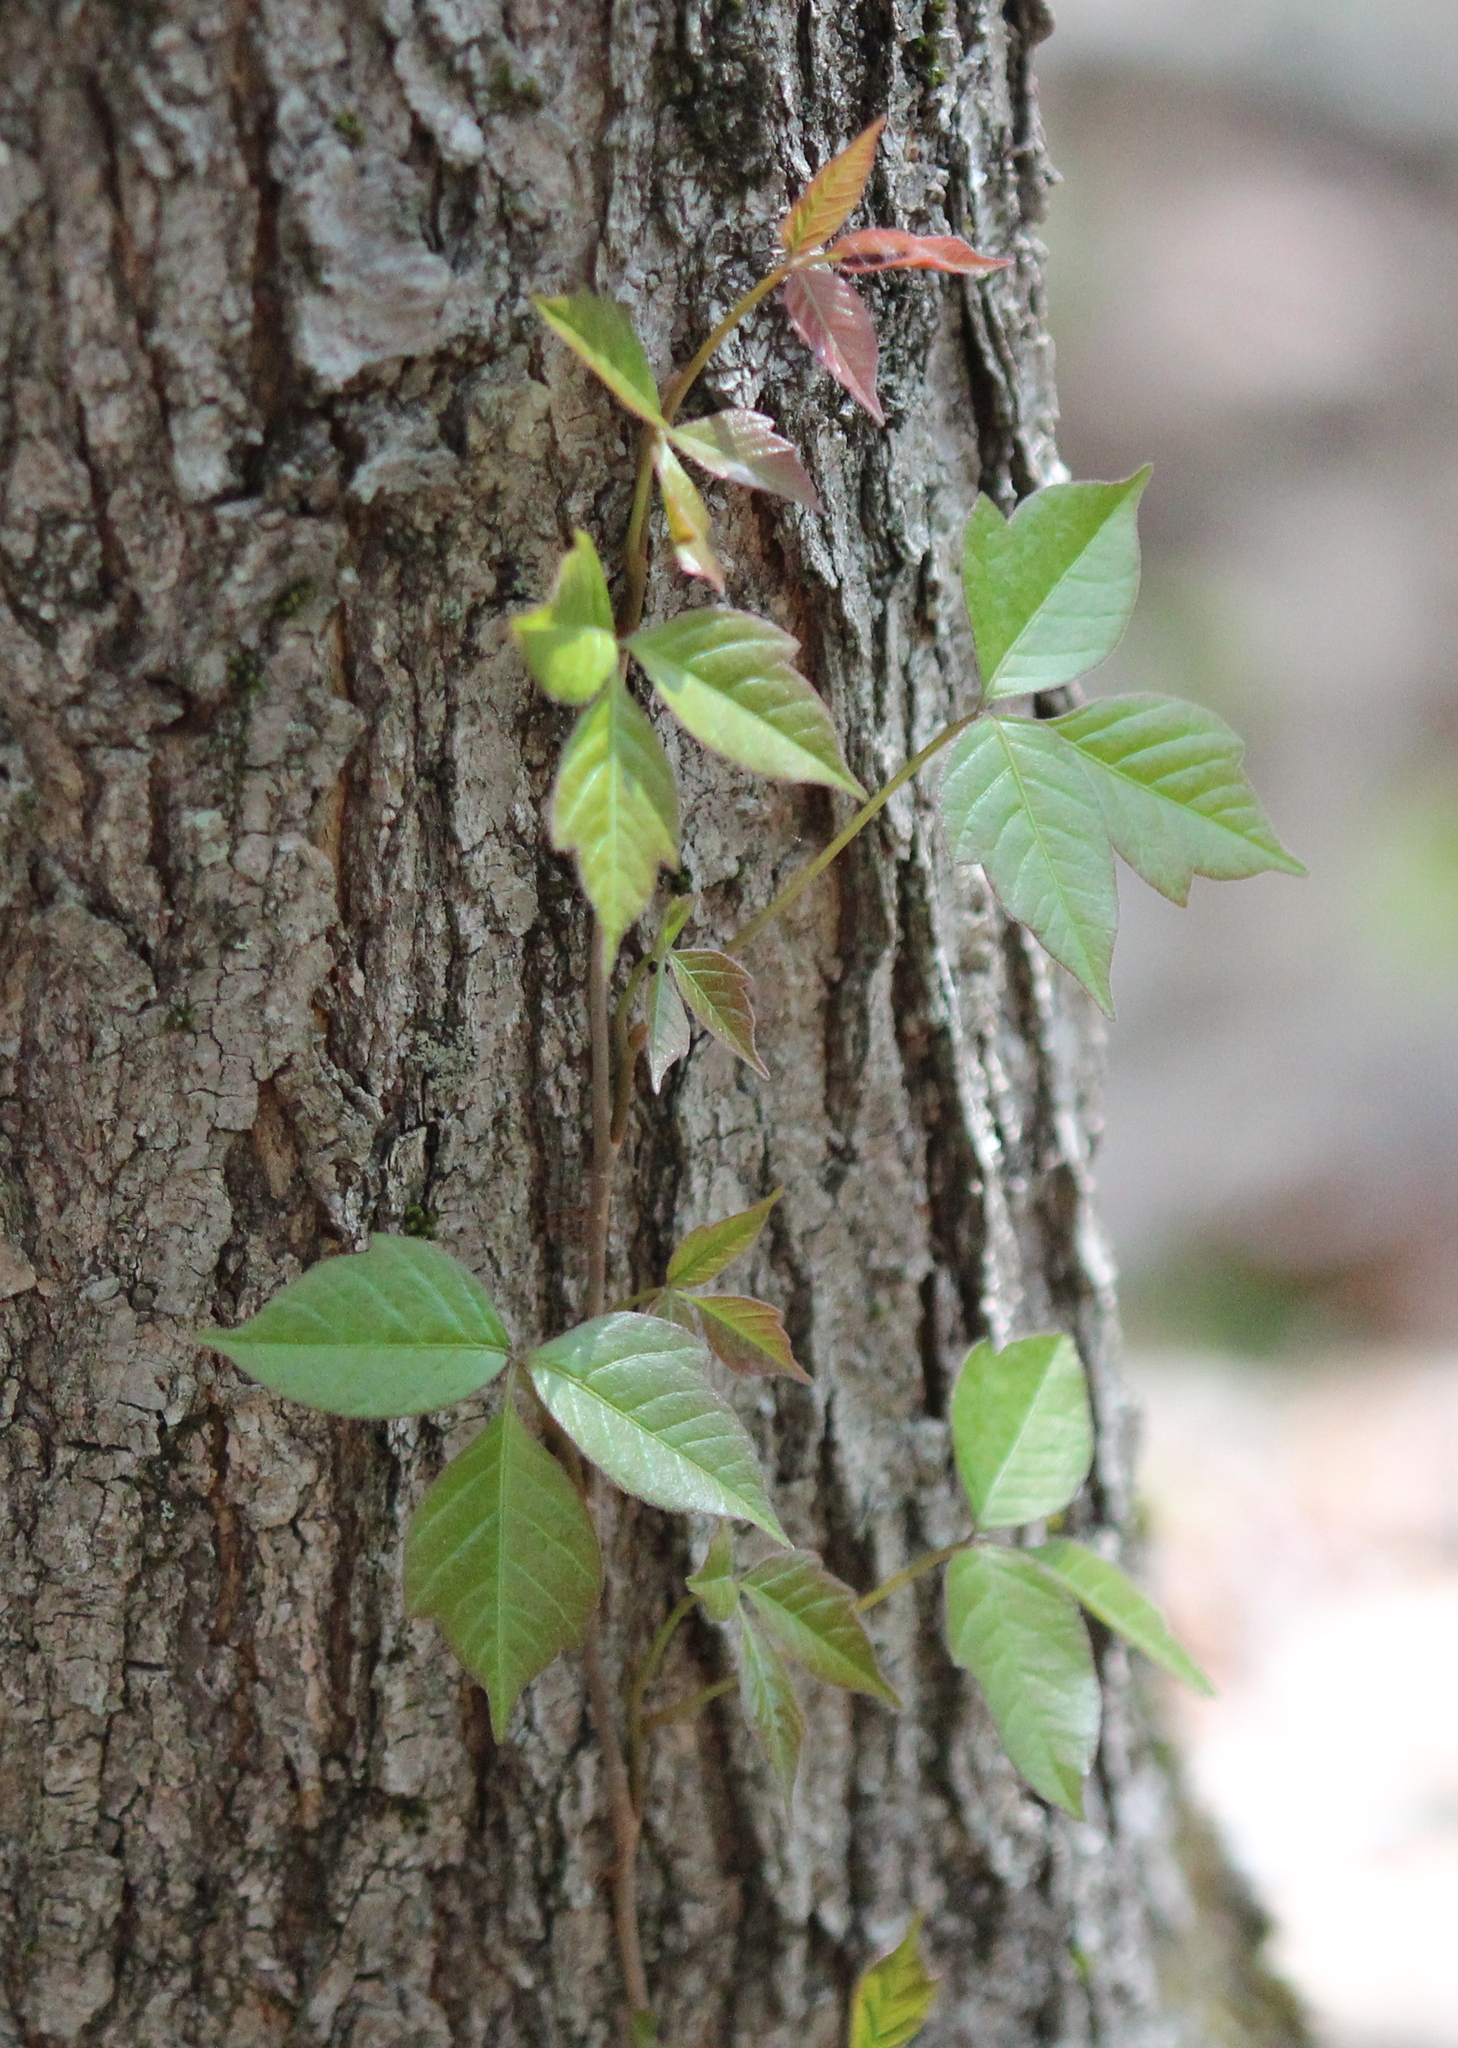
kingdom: Plantae
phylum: Tracheophyta
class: Magnoliopsida
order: Sapindales
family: Anacardiaceae
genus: Toxicodendron
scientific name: Toxicodendron radicans
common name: Poison ivy
